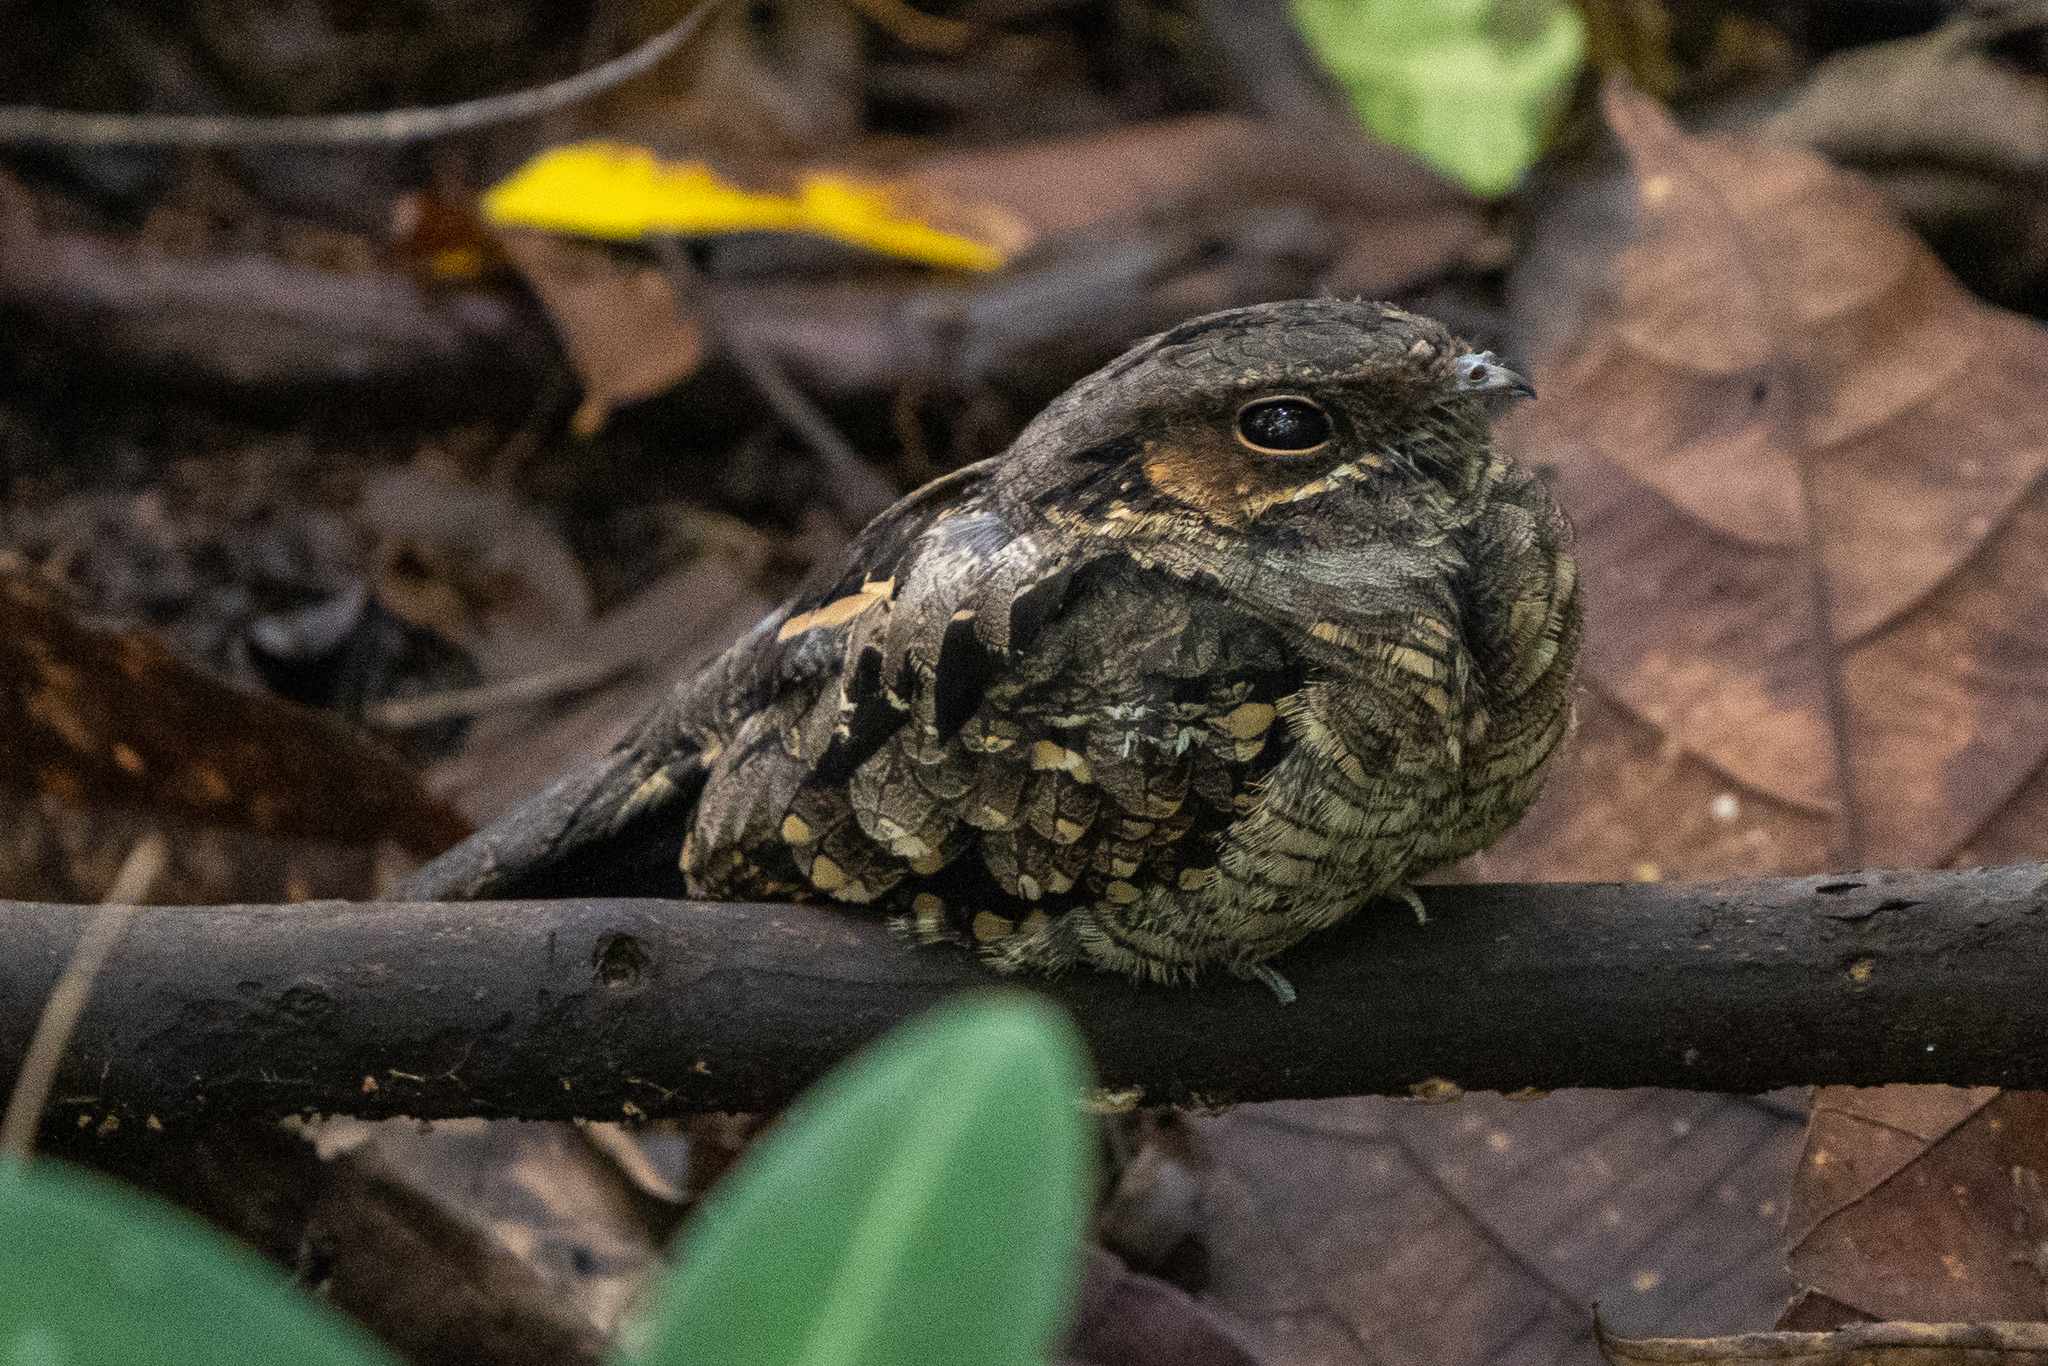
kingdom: Animalia
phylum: Chordata
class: Aves
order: Caprimulgiformes
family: Caprimulgidae
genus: Nyctidromus
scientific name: Nyctidromus albicollis
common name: Pauraque
